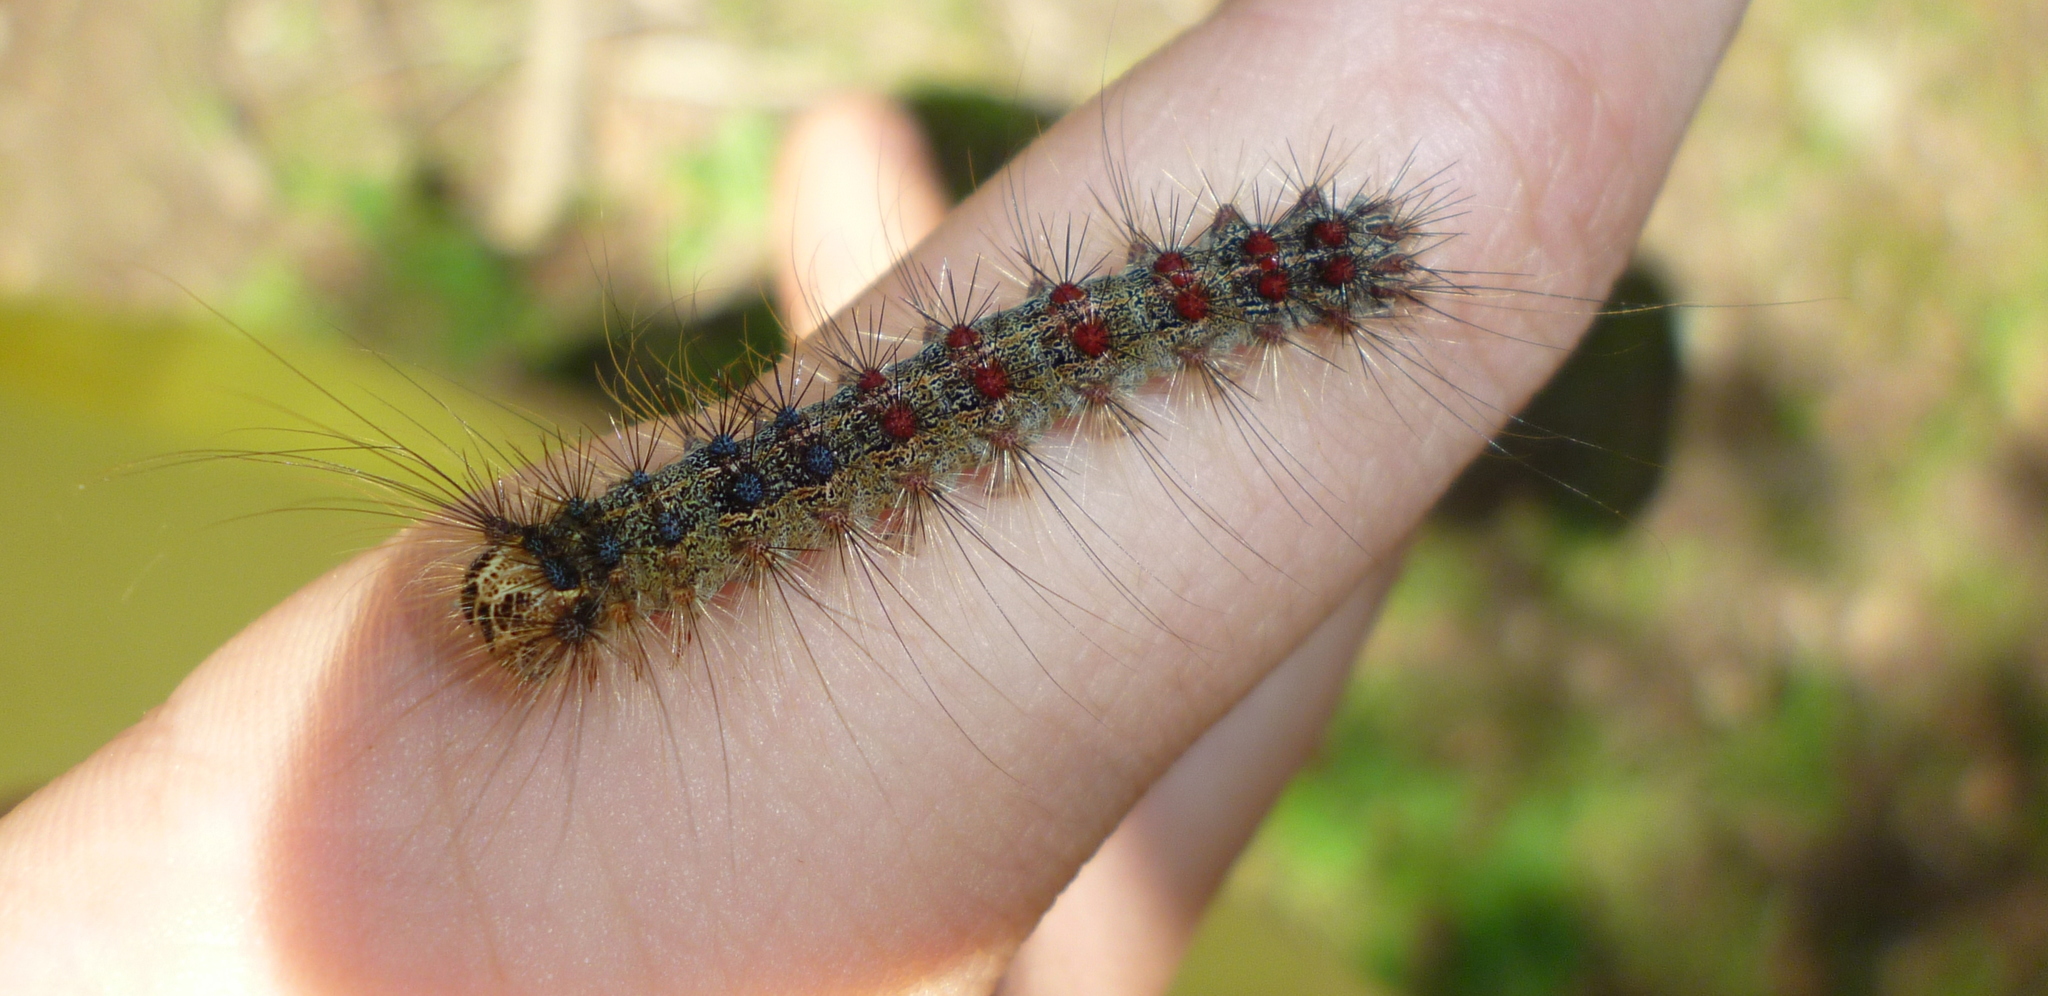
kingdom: Animalia
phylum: Arthropoda
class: Insecta
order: Lepidoptera
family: Erebidae
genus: Lymantria
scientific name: Lymantria dispar
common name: Gypsy moth
